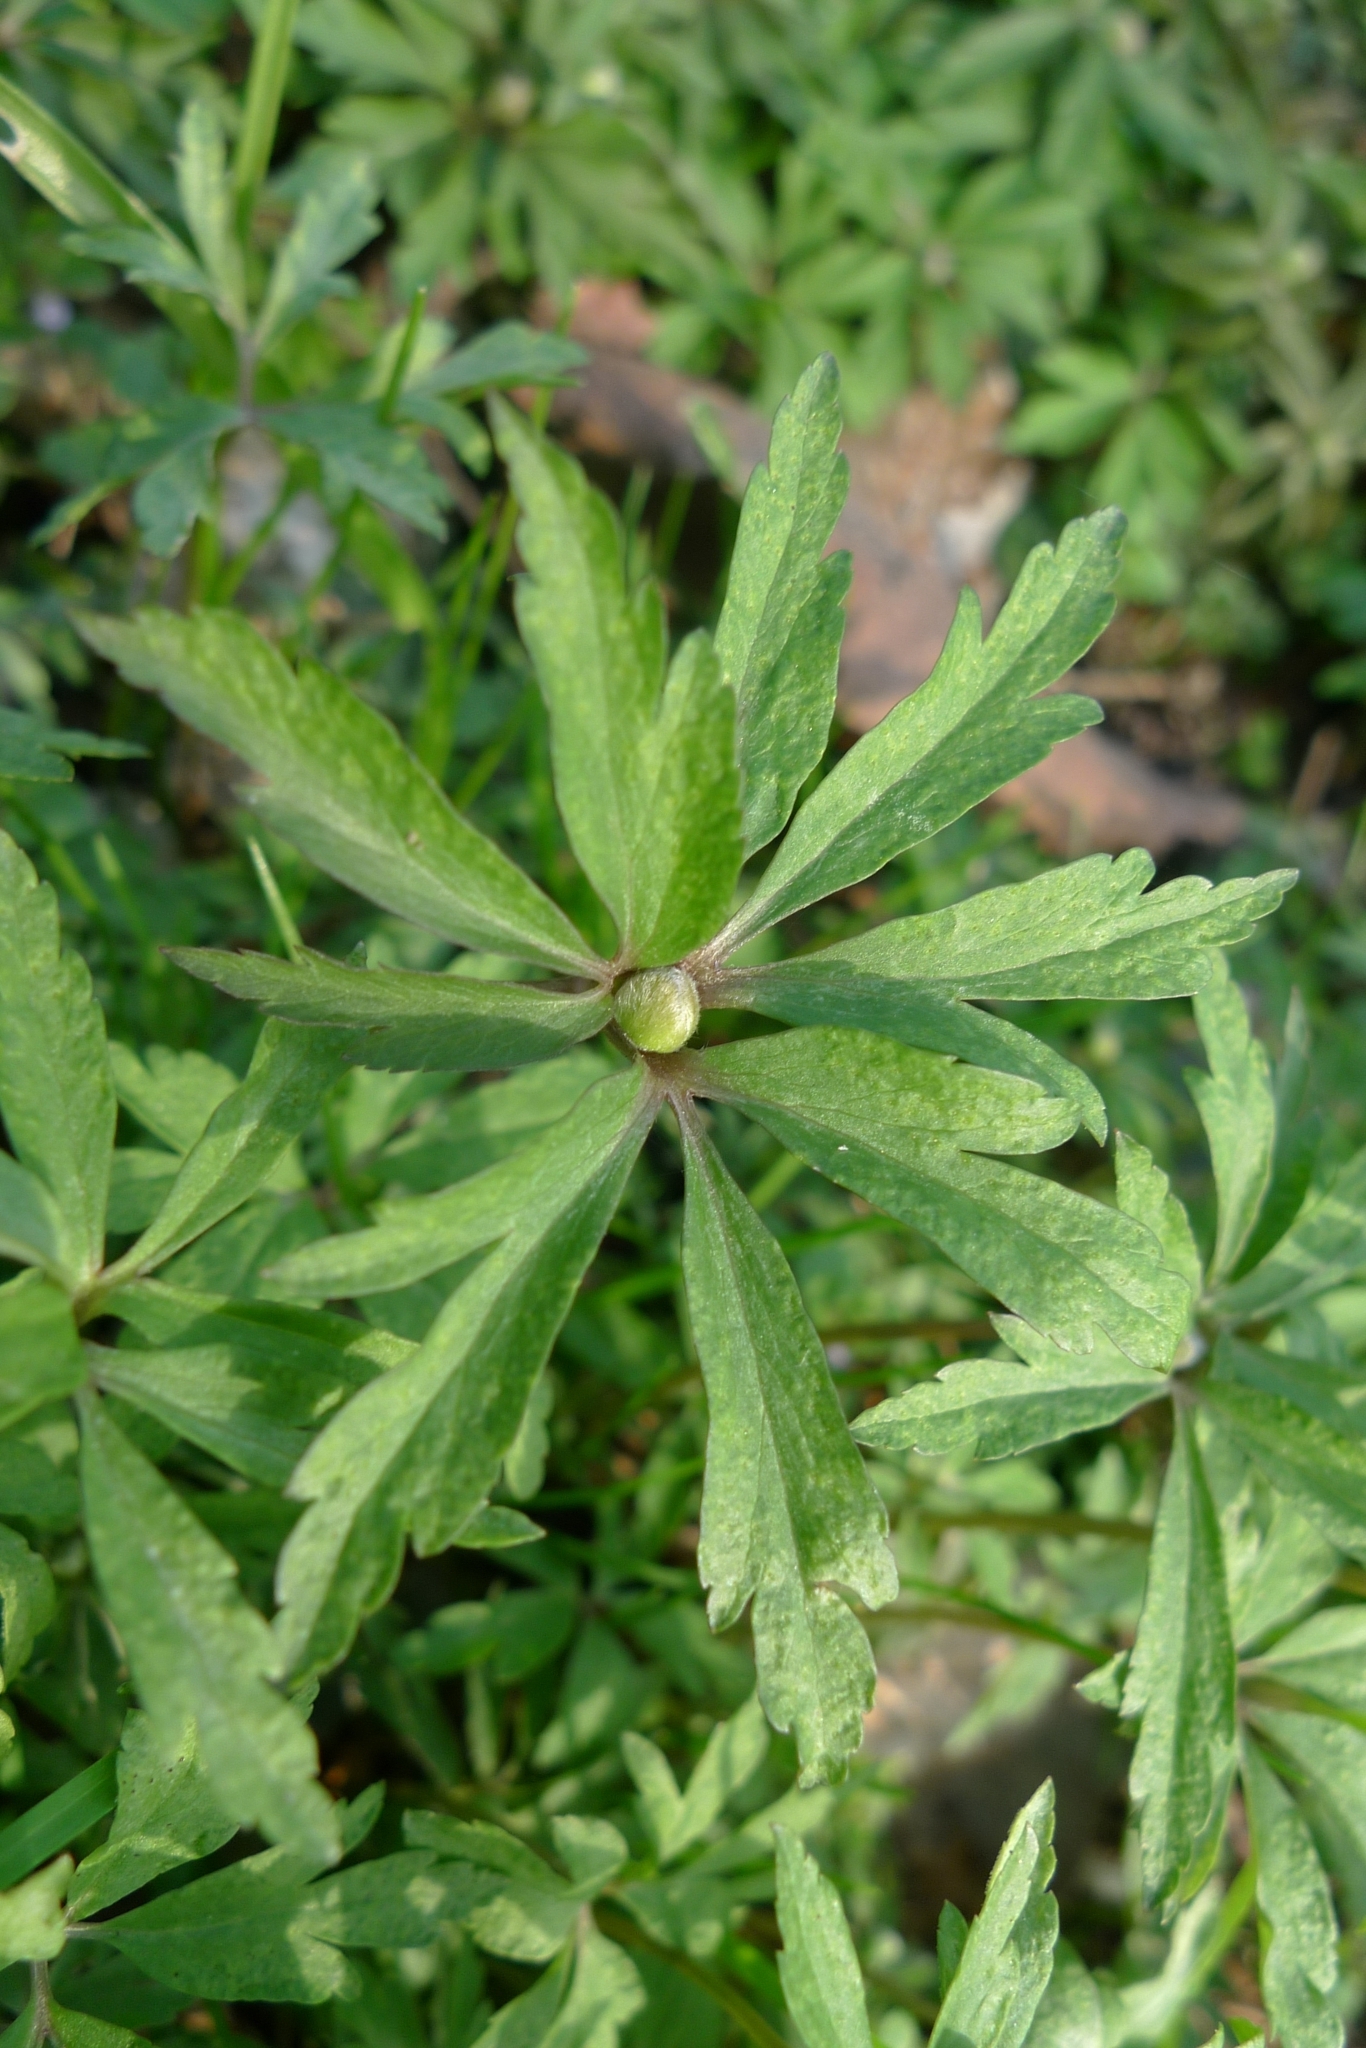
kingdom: Plantae
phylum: Tracheophyta
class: Magnoliopsida
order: Ranunculales
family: Ranunculaceae
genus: Anemone
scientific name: Anemone ranunculoides
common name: Yellow anemone
